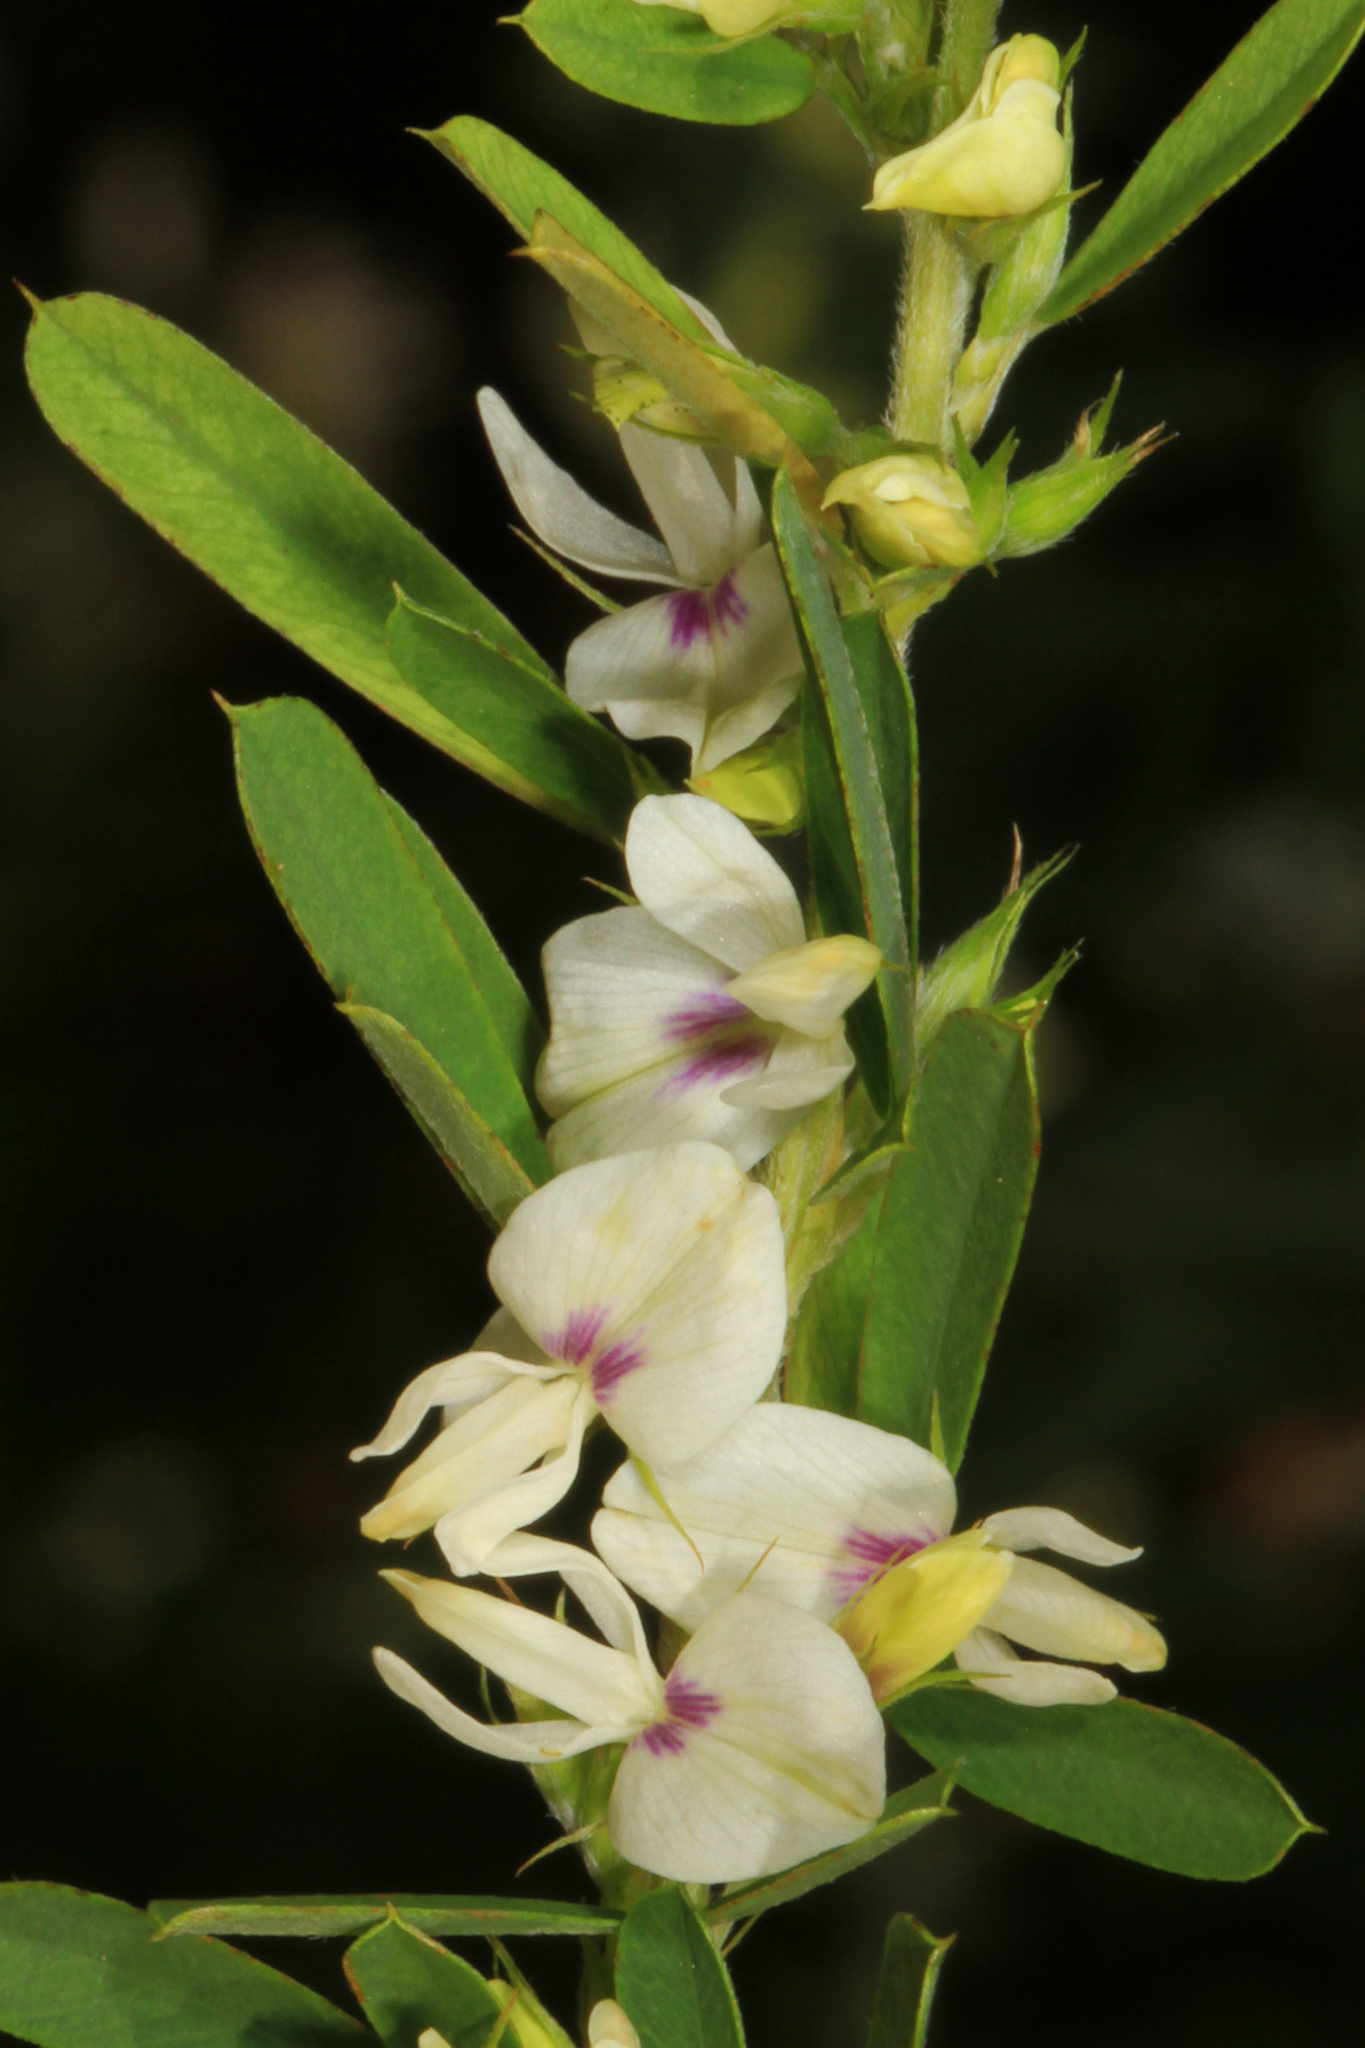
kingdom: Plantae
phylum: Tracheophyta
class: Magnoliopsida
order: Fabales
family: Fabaceae
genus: Lespedeza
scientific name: Lespedeza cuneata
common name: Chinese bush-clover
